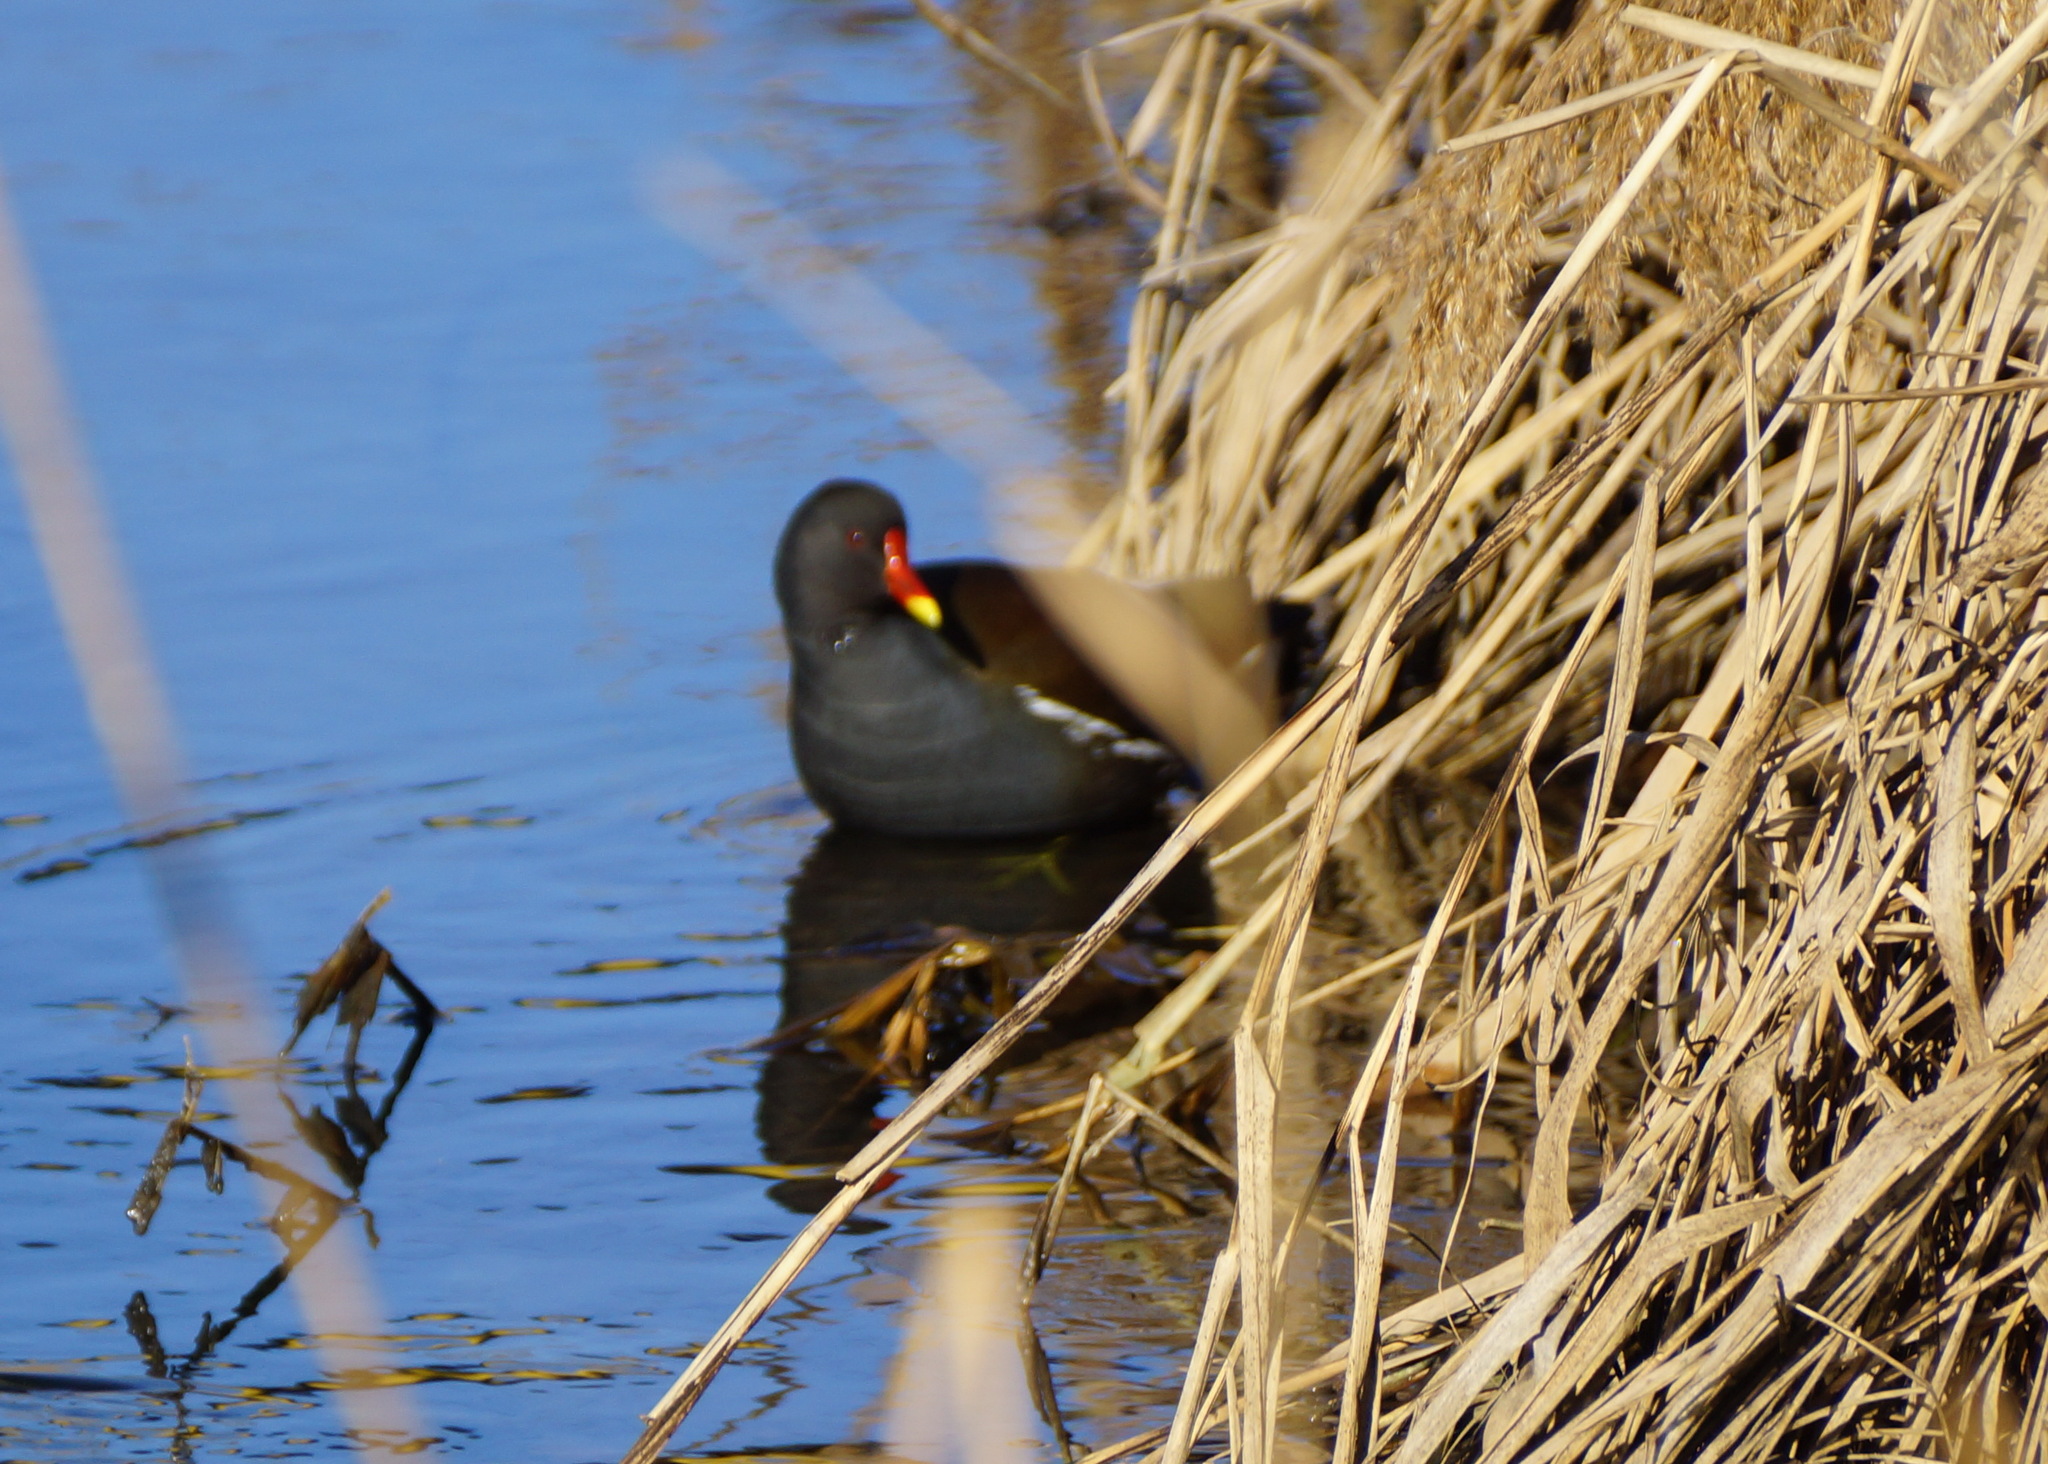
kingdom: Animalia
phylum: Chordata
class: Aves
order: Gruiformes
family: Rallidae
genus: Gallinula
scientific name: Gallinula chloropus
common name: Common moorhen
